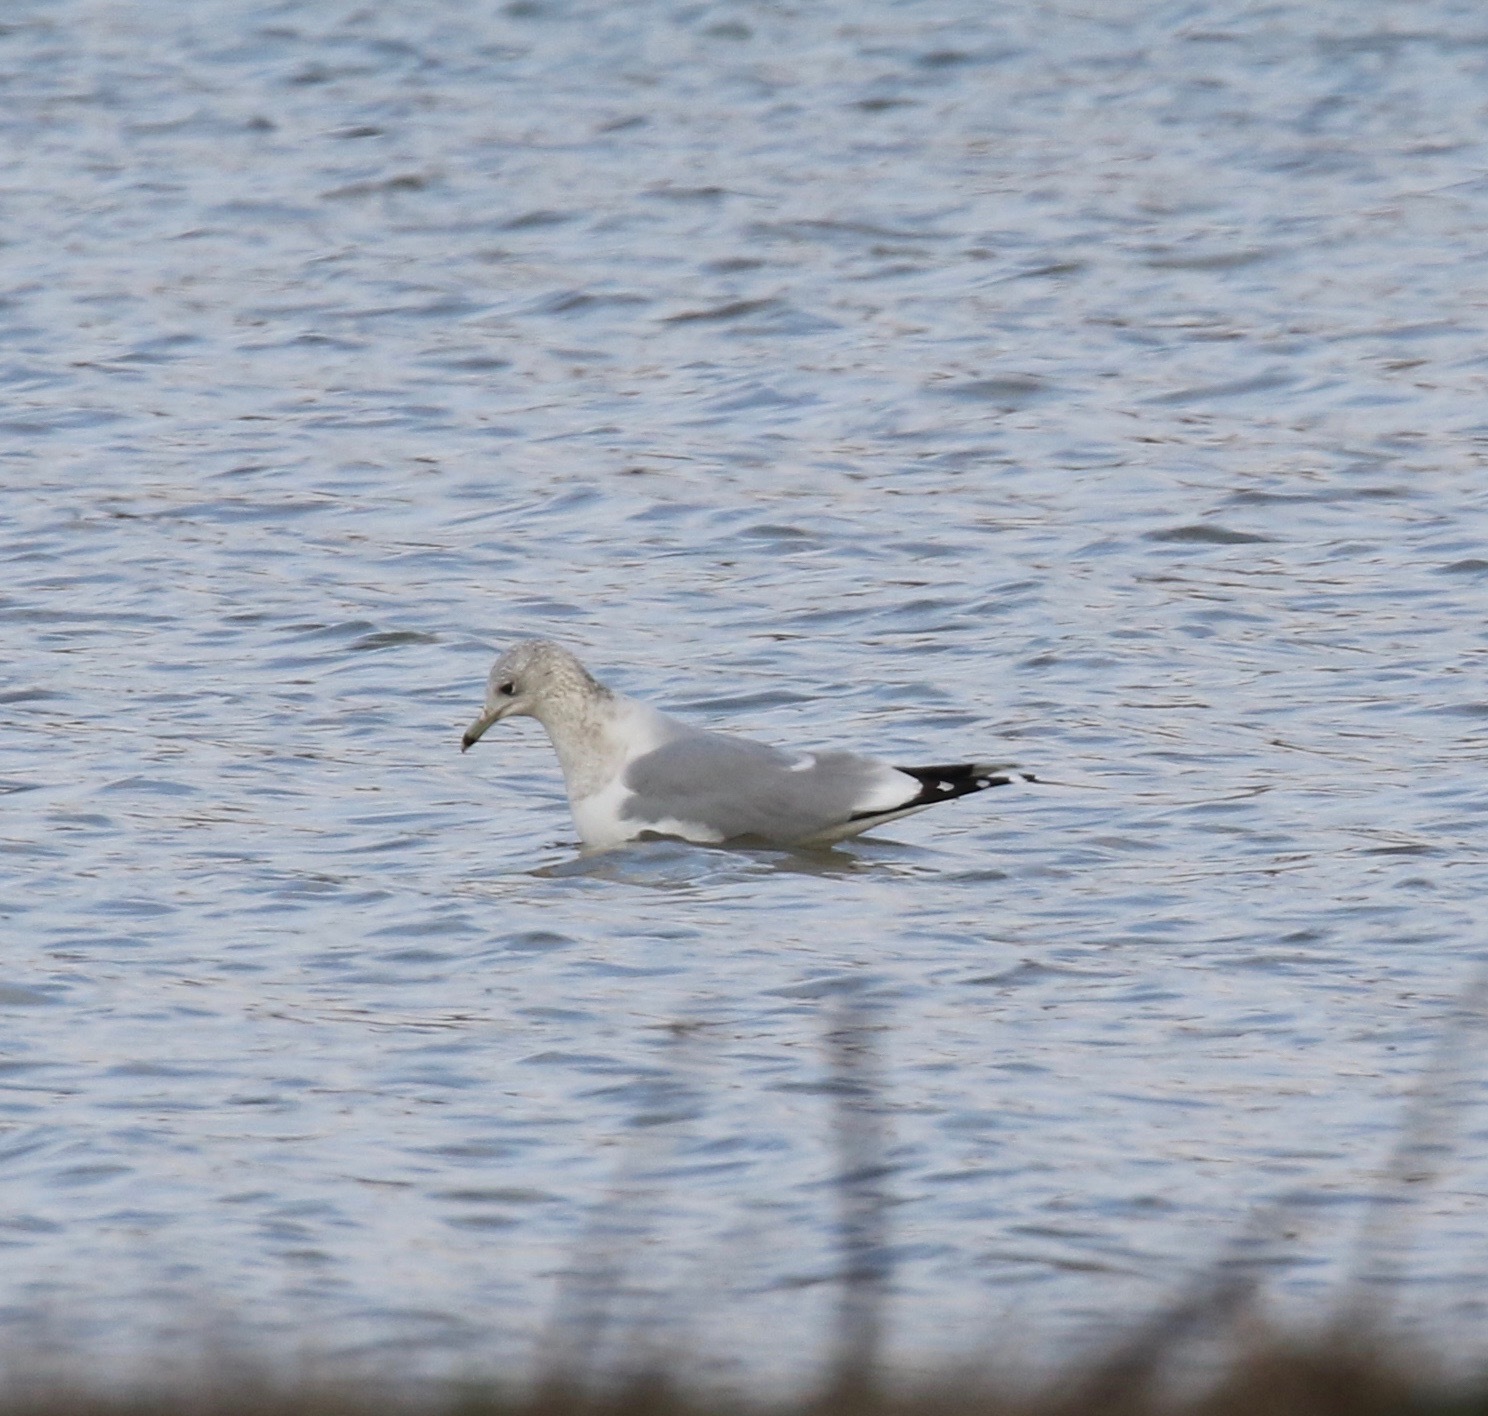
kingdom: Animalia
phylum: Chordata
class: Aves
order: Charadriiformes
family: Laridae
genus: Larus
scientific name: Larus canus
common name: Mew gull
